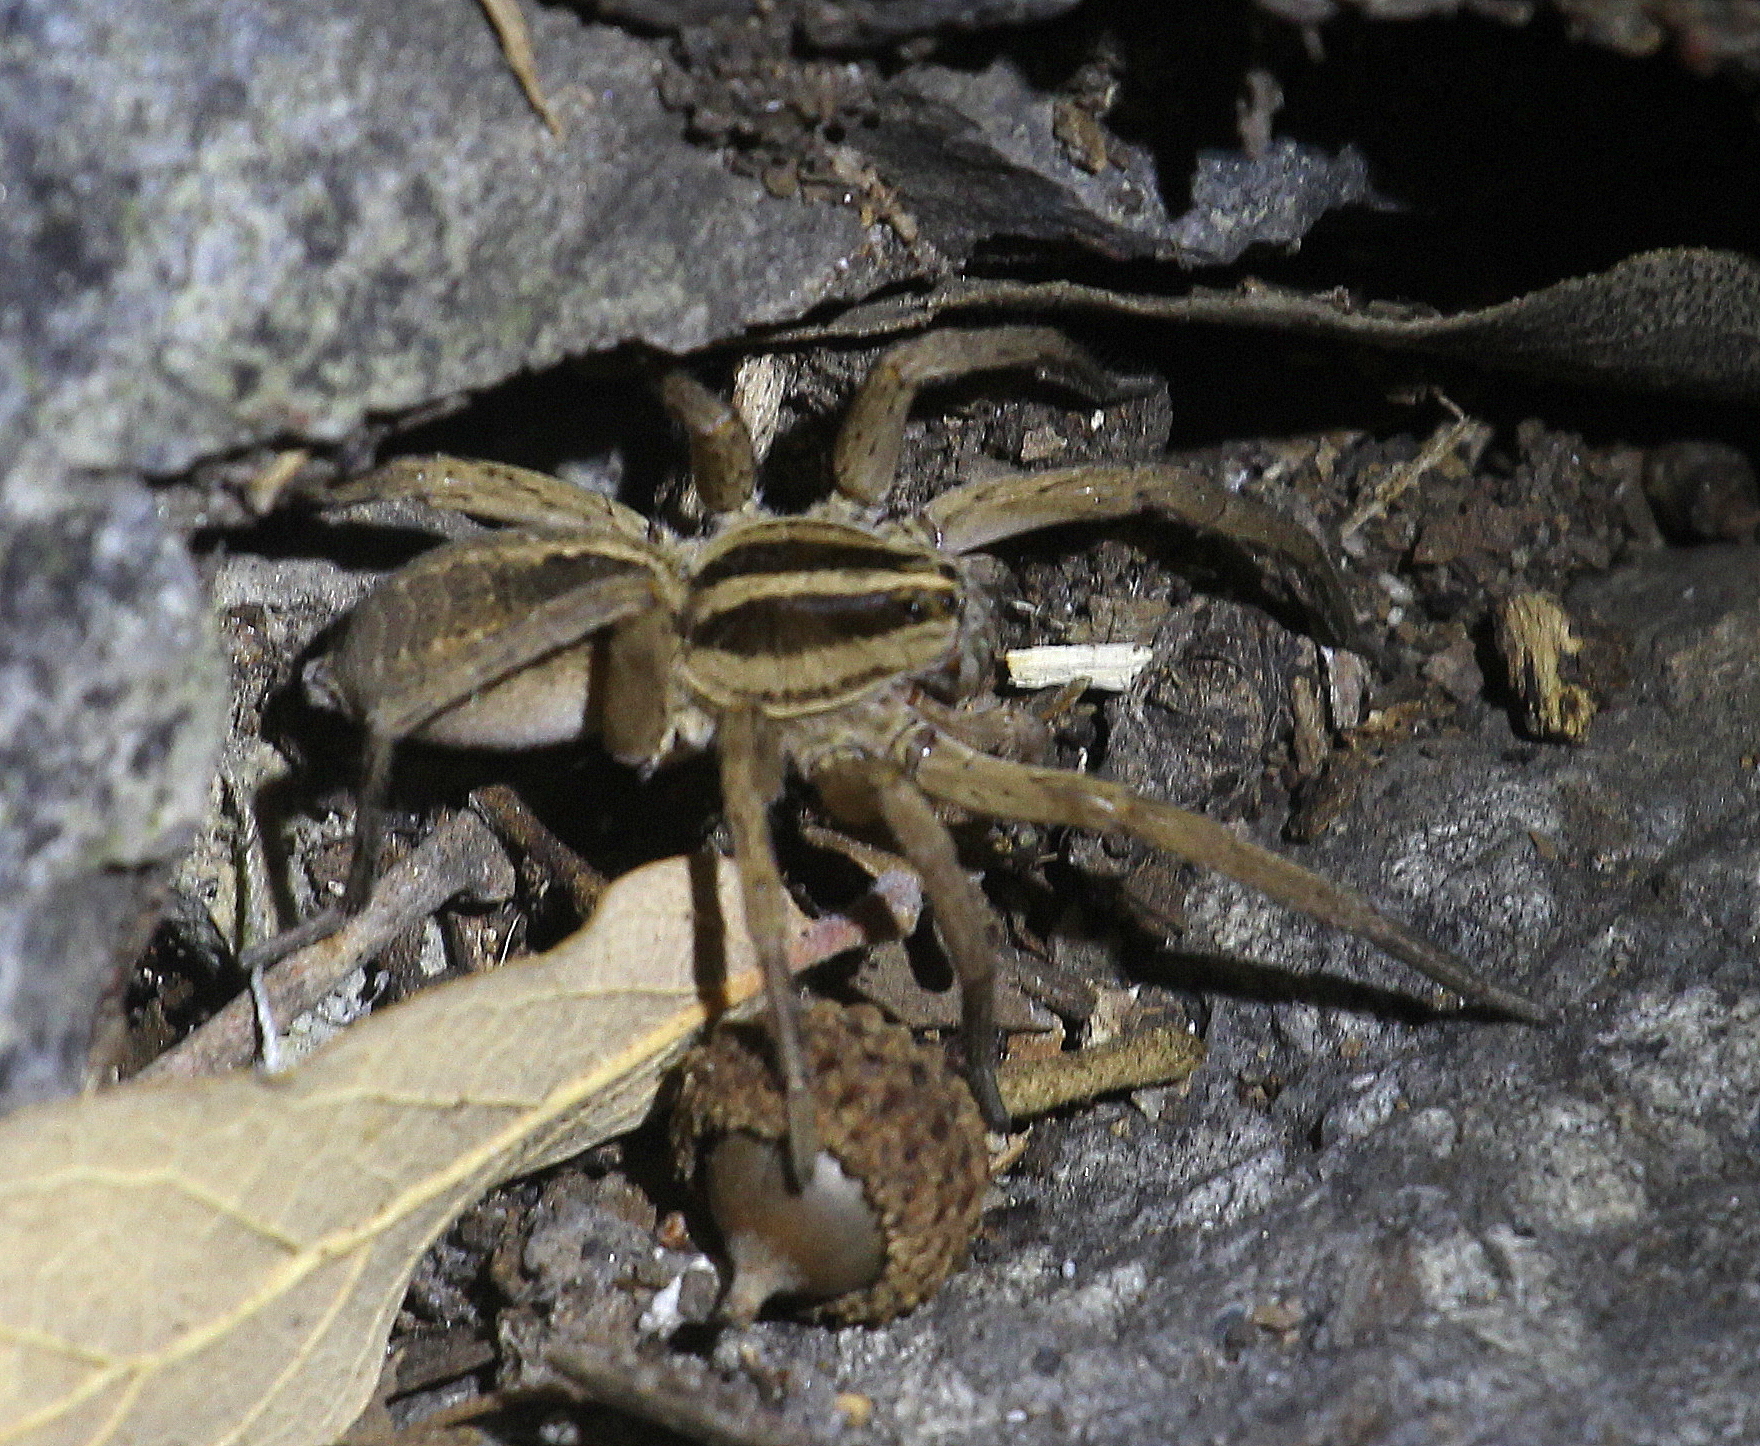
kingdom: Animalia
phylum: Arthropoda
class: Arachnida
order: Araneae
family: Lycosidae
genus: Rabidosa
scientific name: Rabidosa santrita
